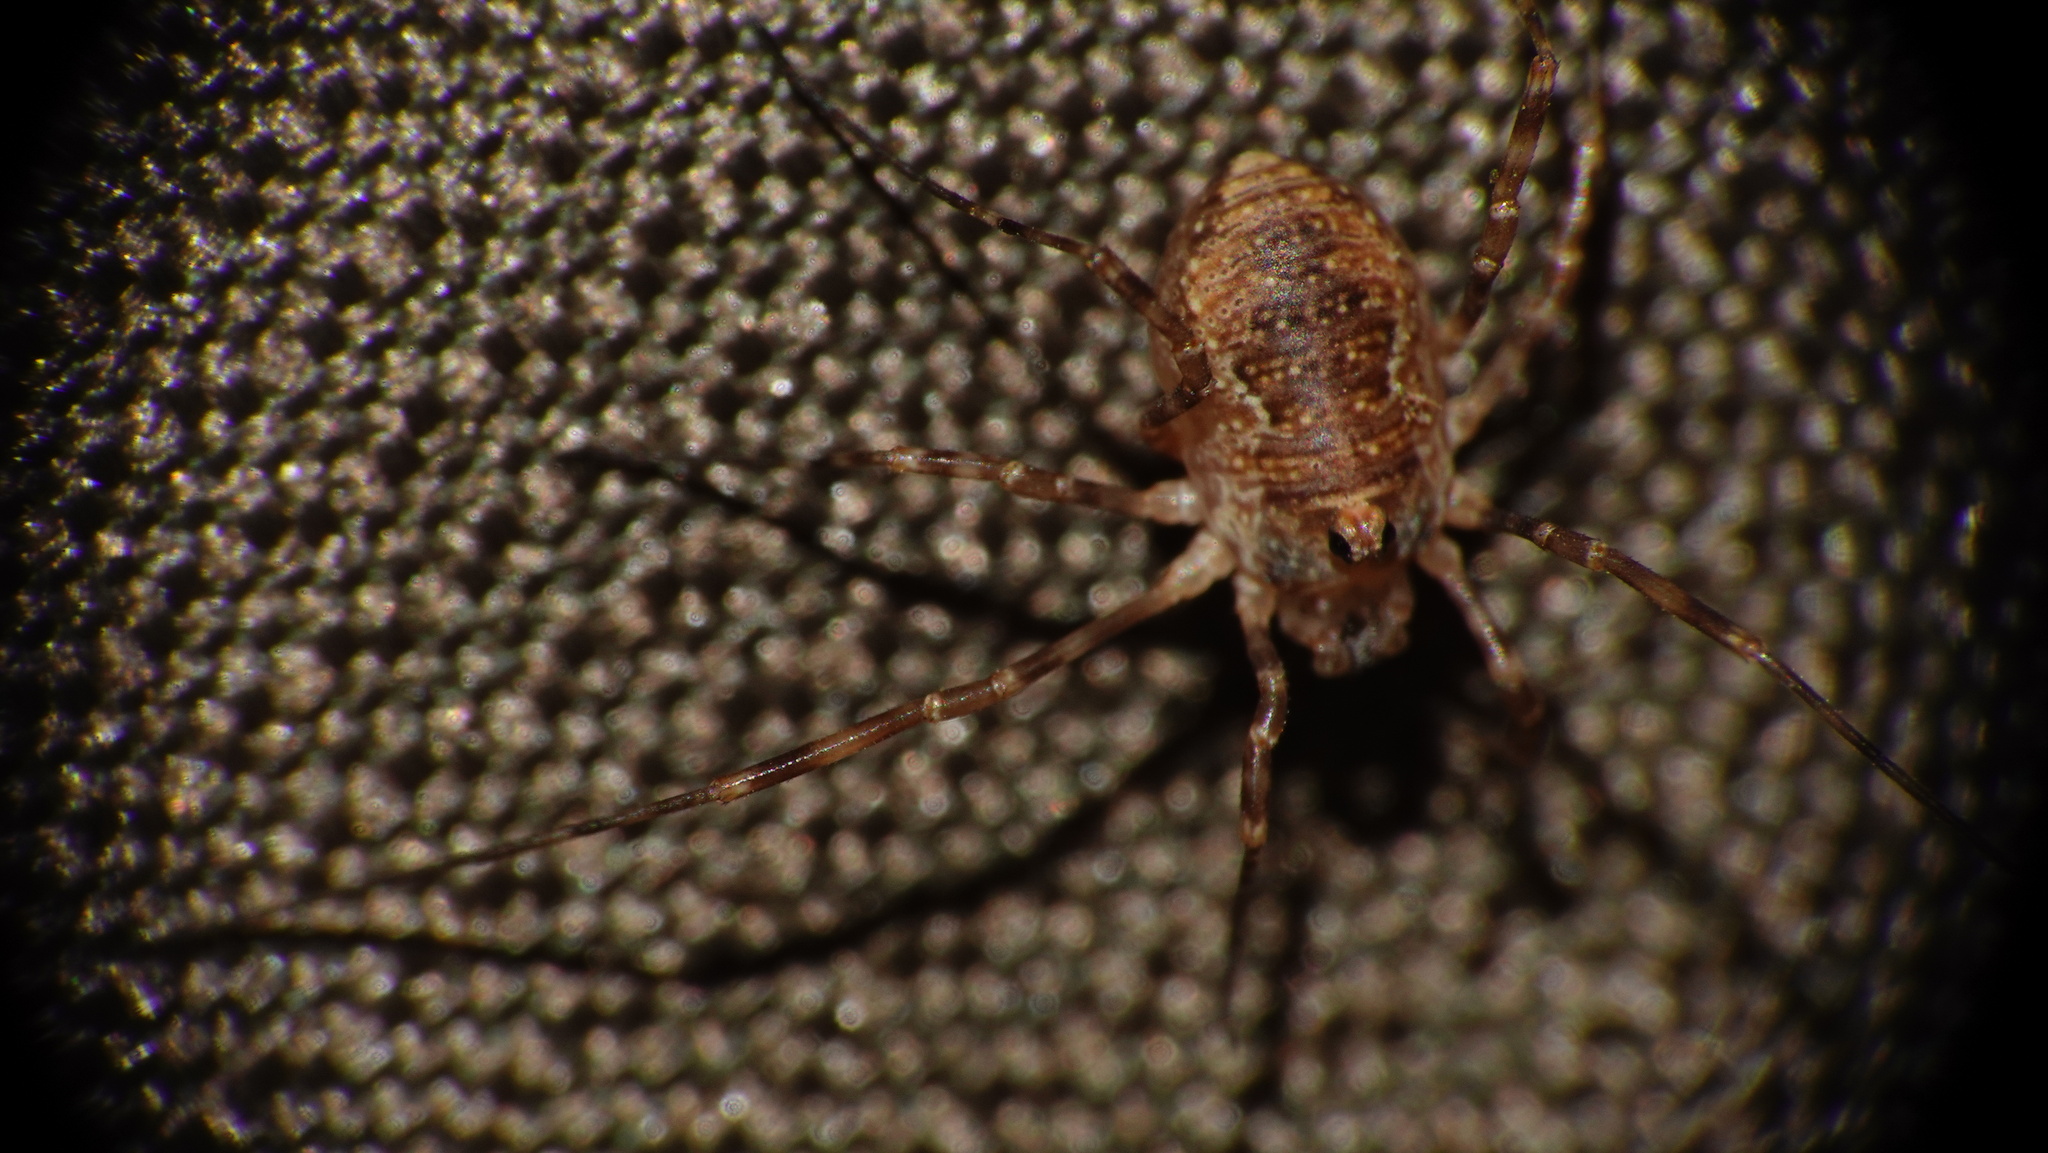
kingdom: Animalia
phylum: Arthropoda
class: Arachnida
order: Opiliones
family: Phalangiidae
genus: Dasylobus
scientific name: Dasylobus graniferus
